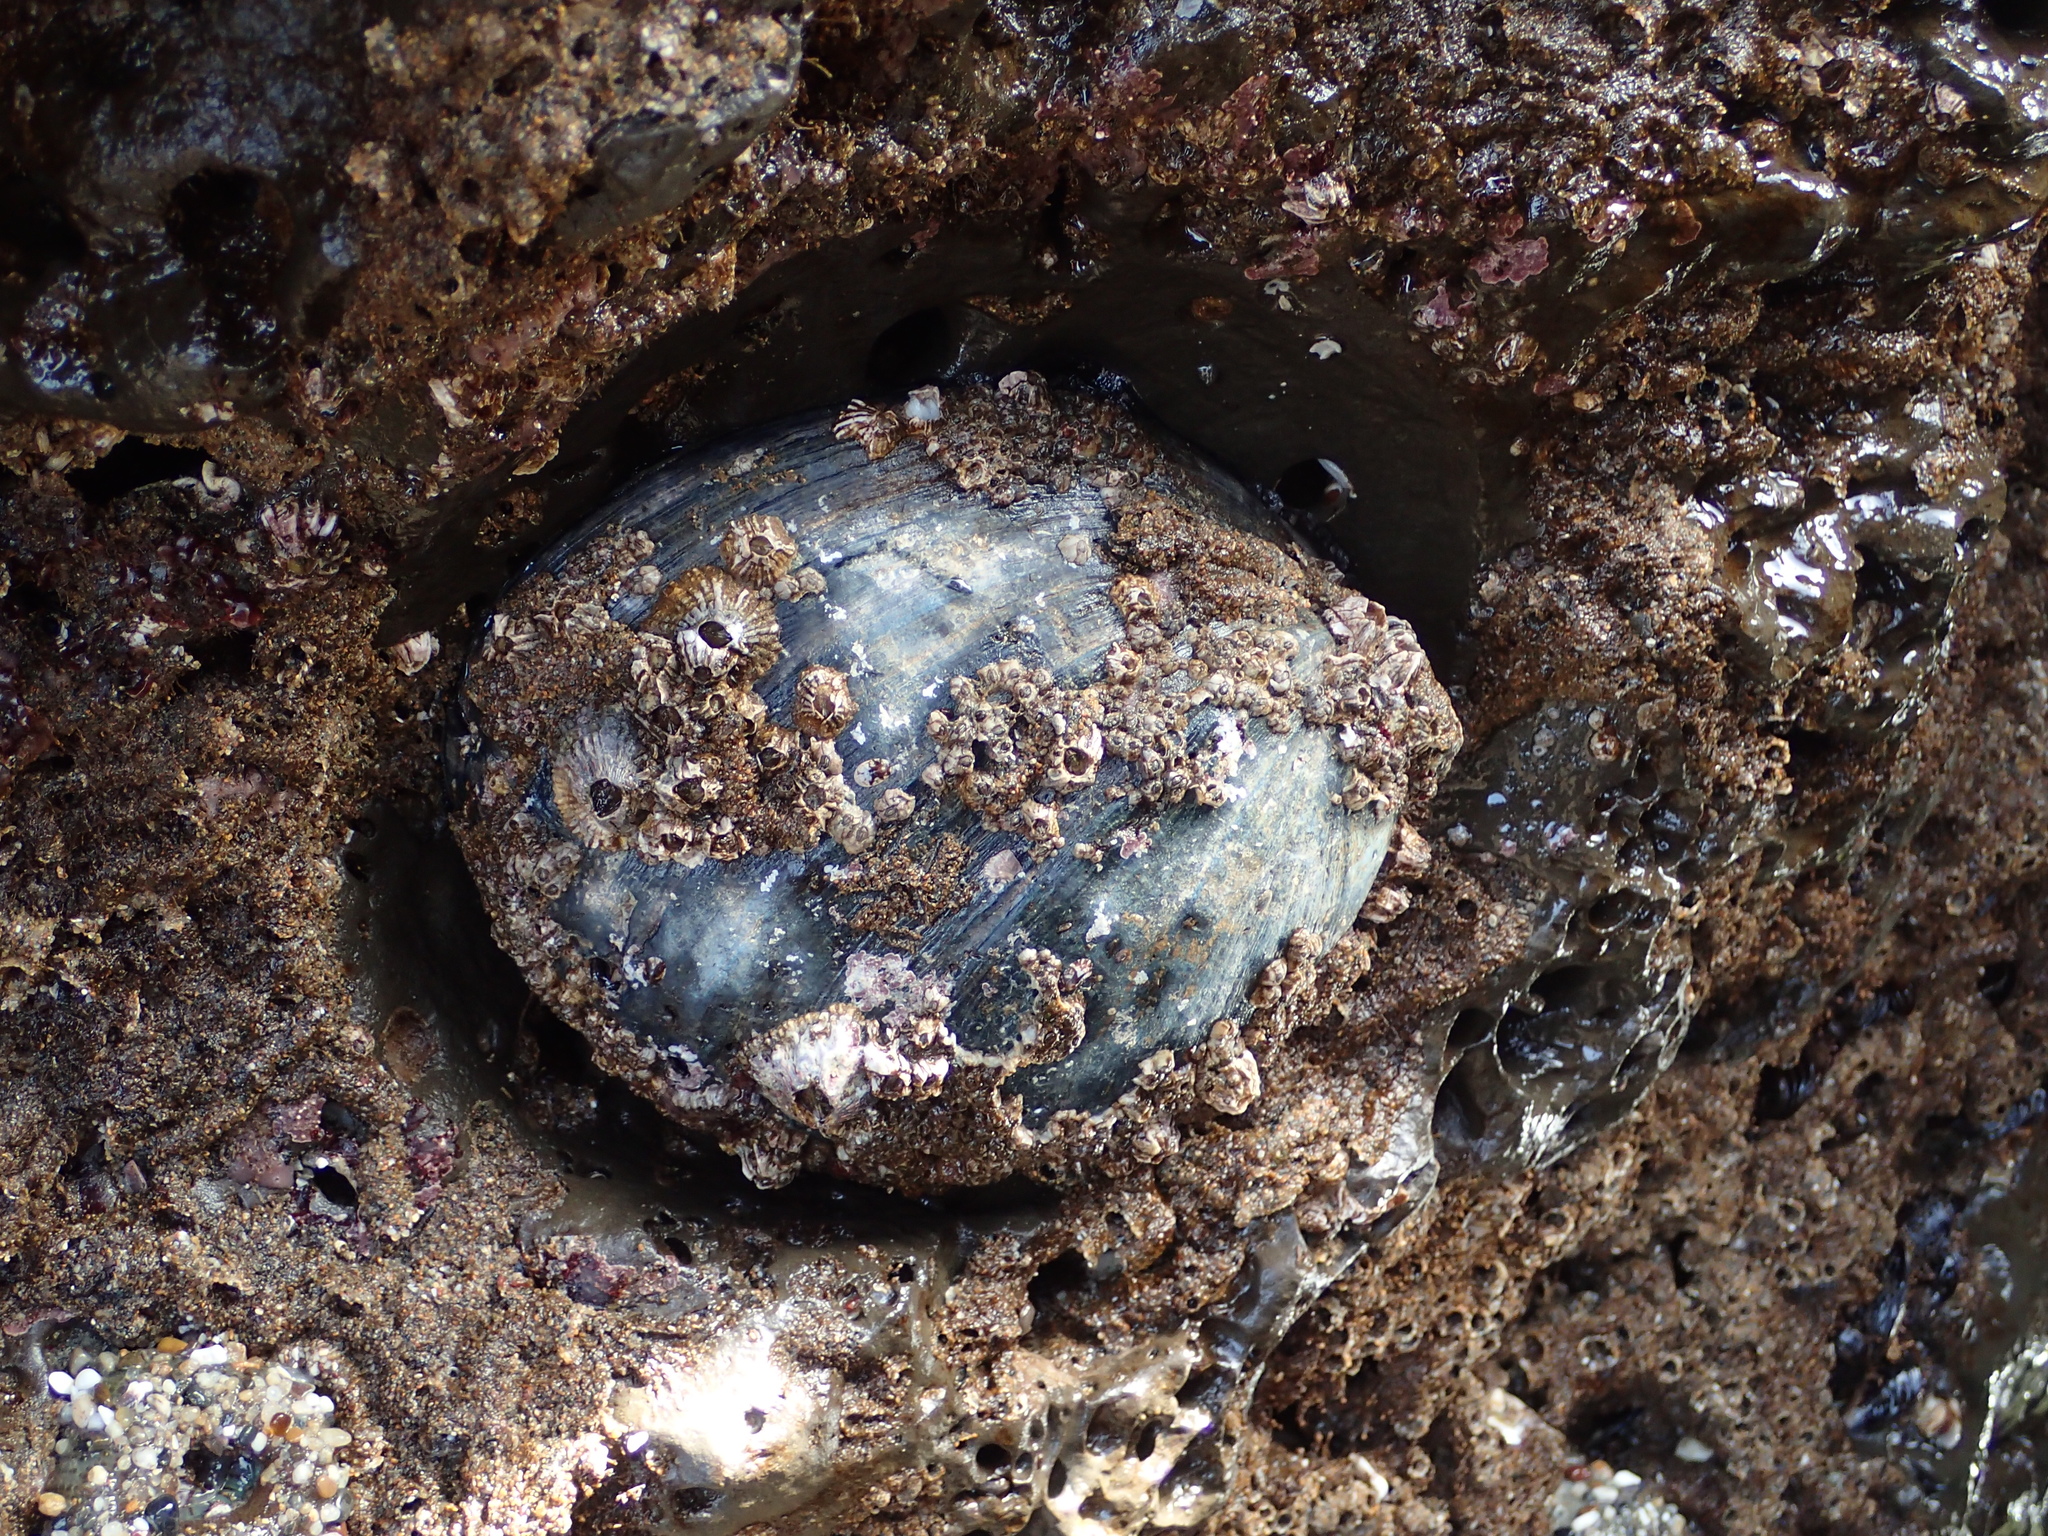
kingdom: Animalia
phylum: Mollusca
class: Gastropoda
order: Lepetellida
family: Haliotidae
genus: Haliotis
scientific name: Haliotis cracherodii
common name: Black abalone
